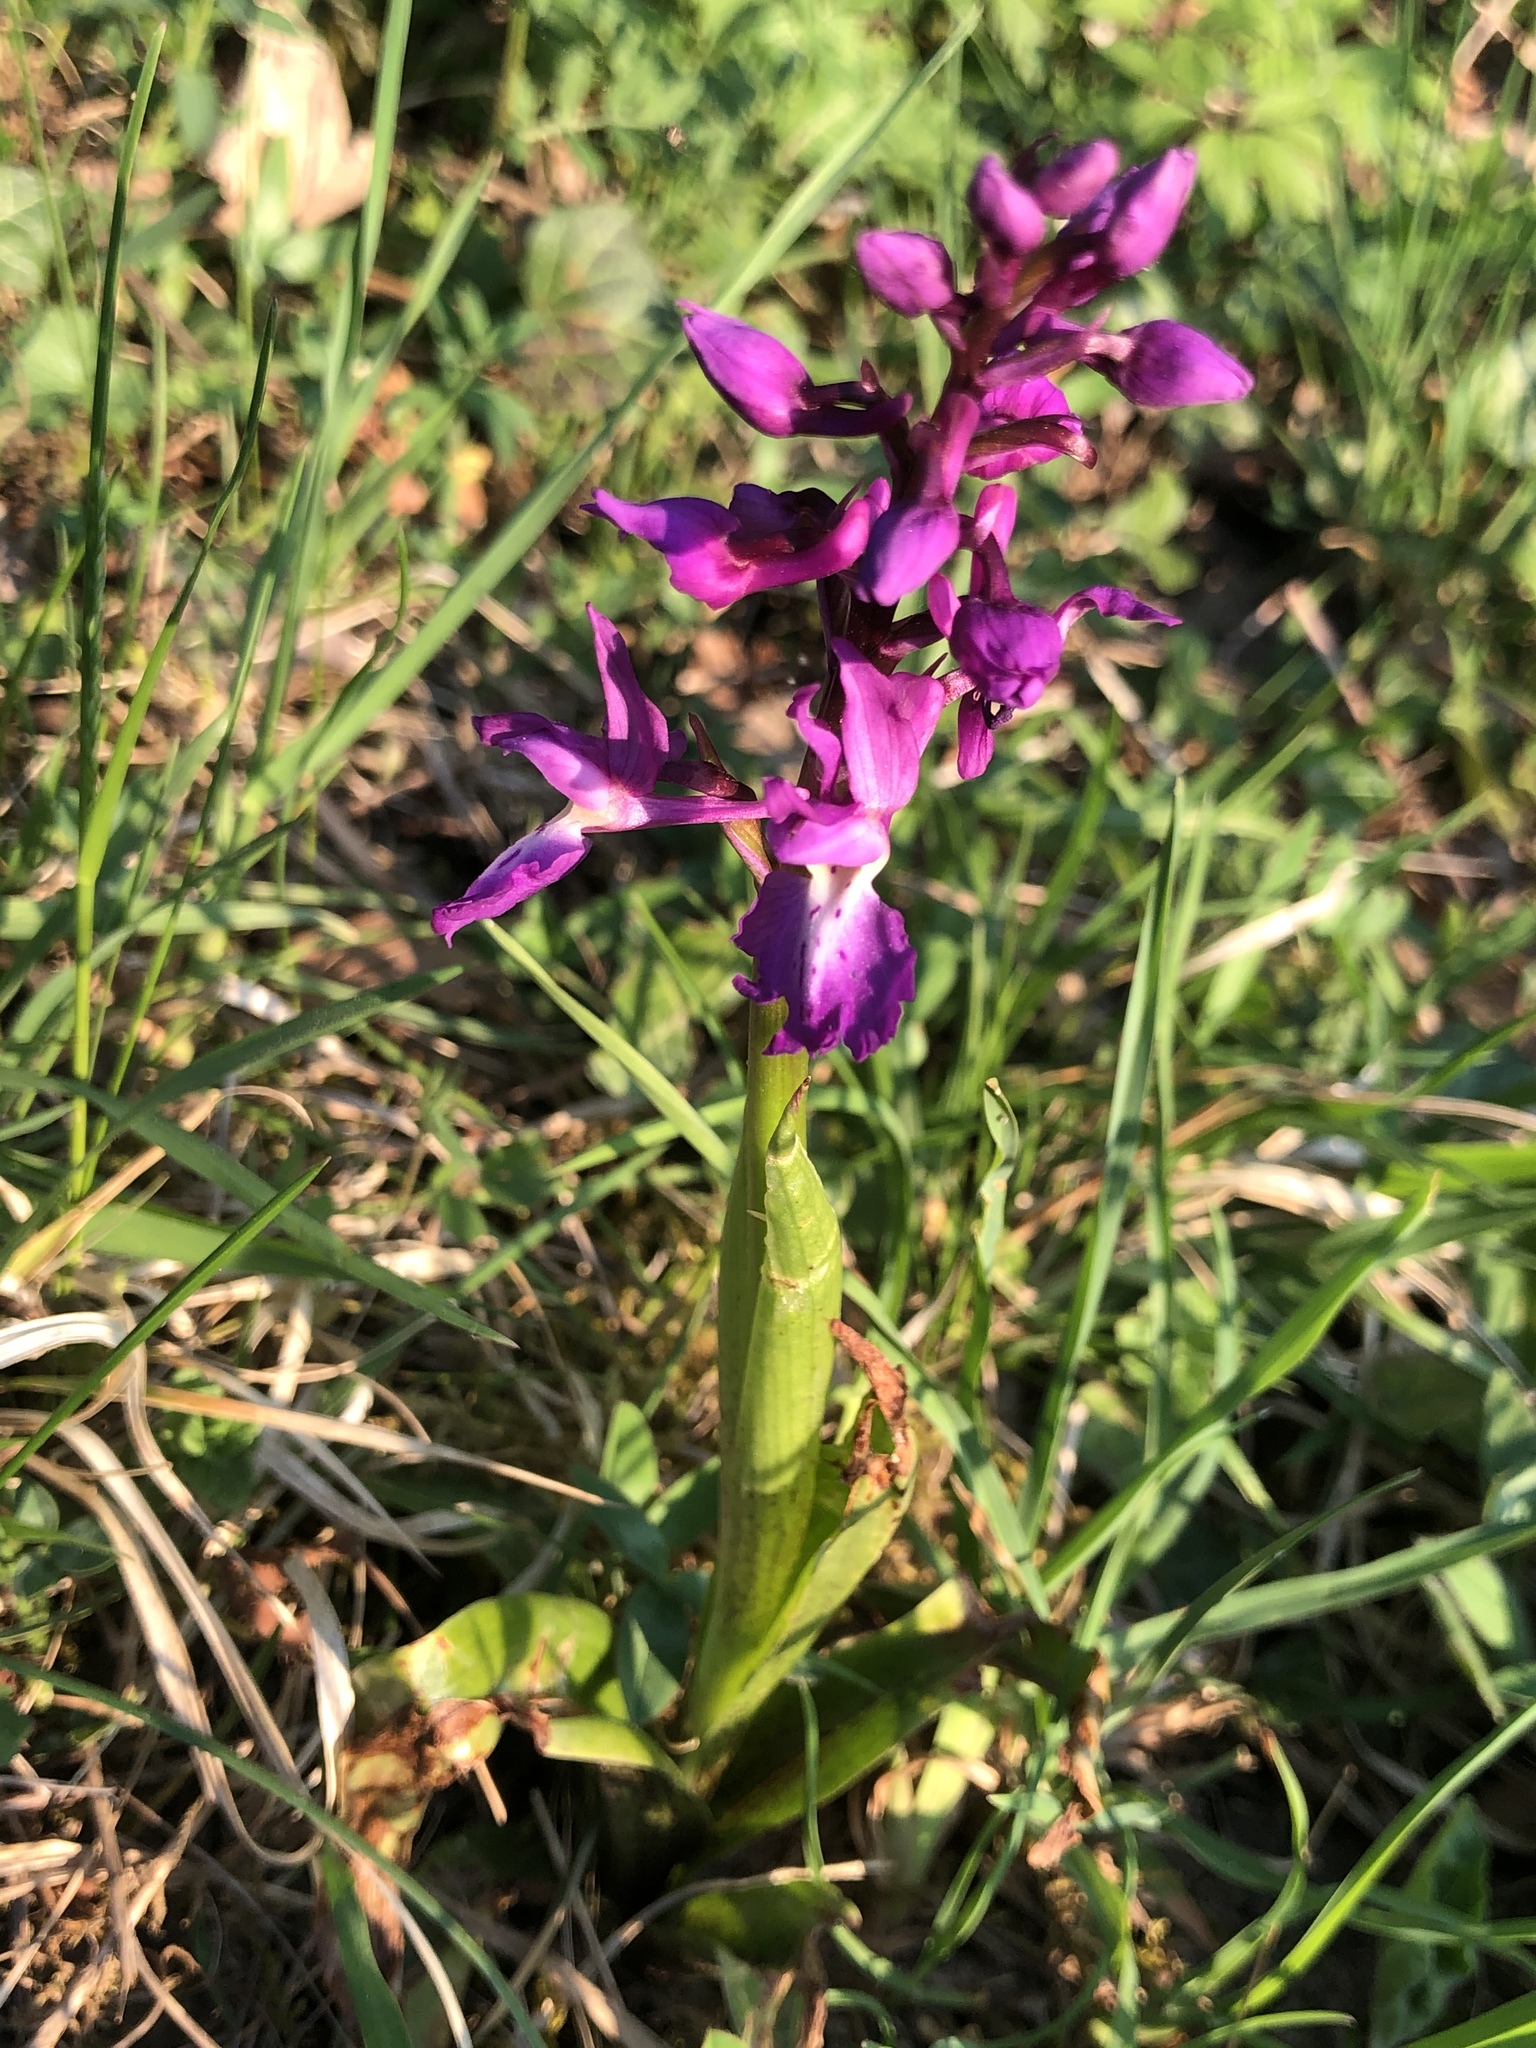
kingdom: Plantae
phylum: Tracheophyta
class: Liliopsida
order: Asparagales
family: Orchidaceae
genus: Orchis
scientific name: Orchis mascula
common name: Early-purple orchid
